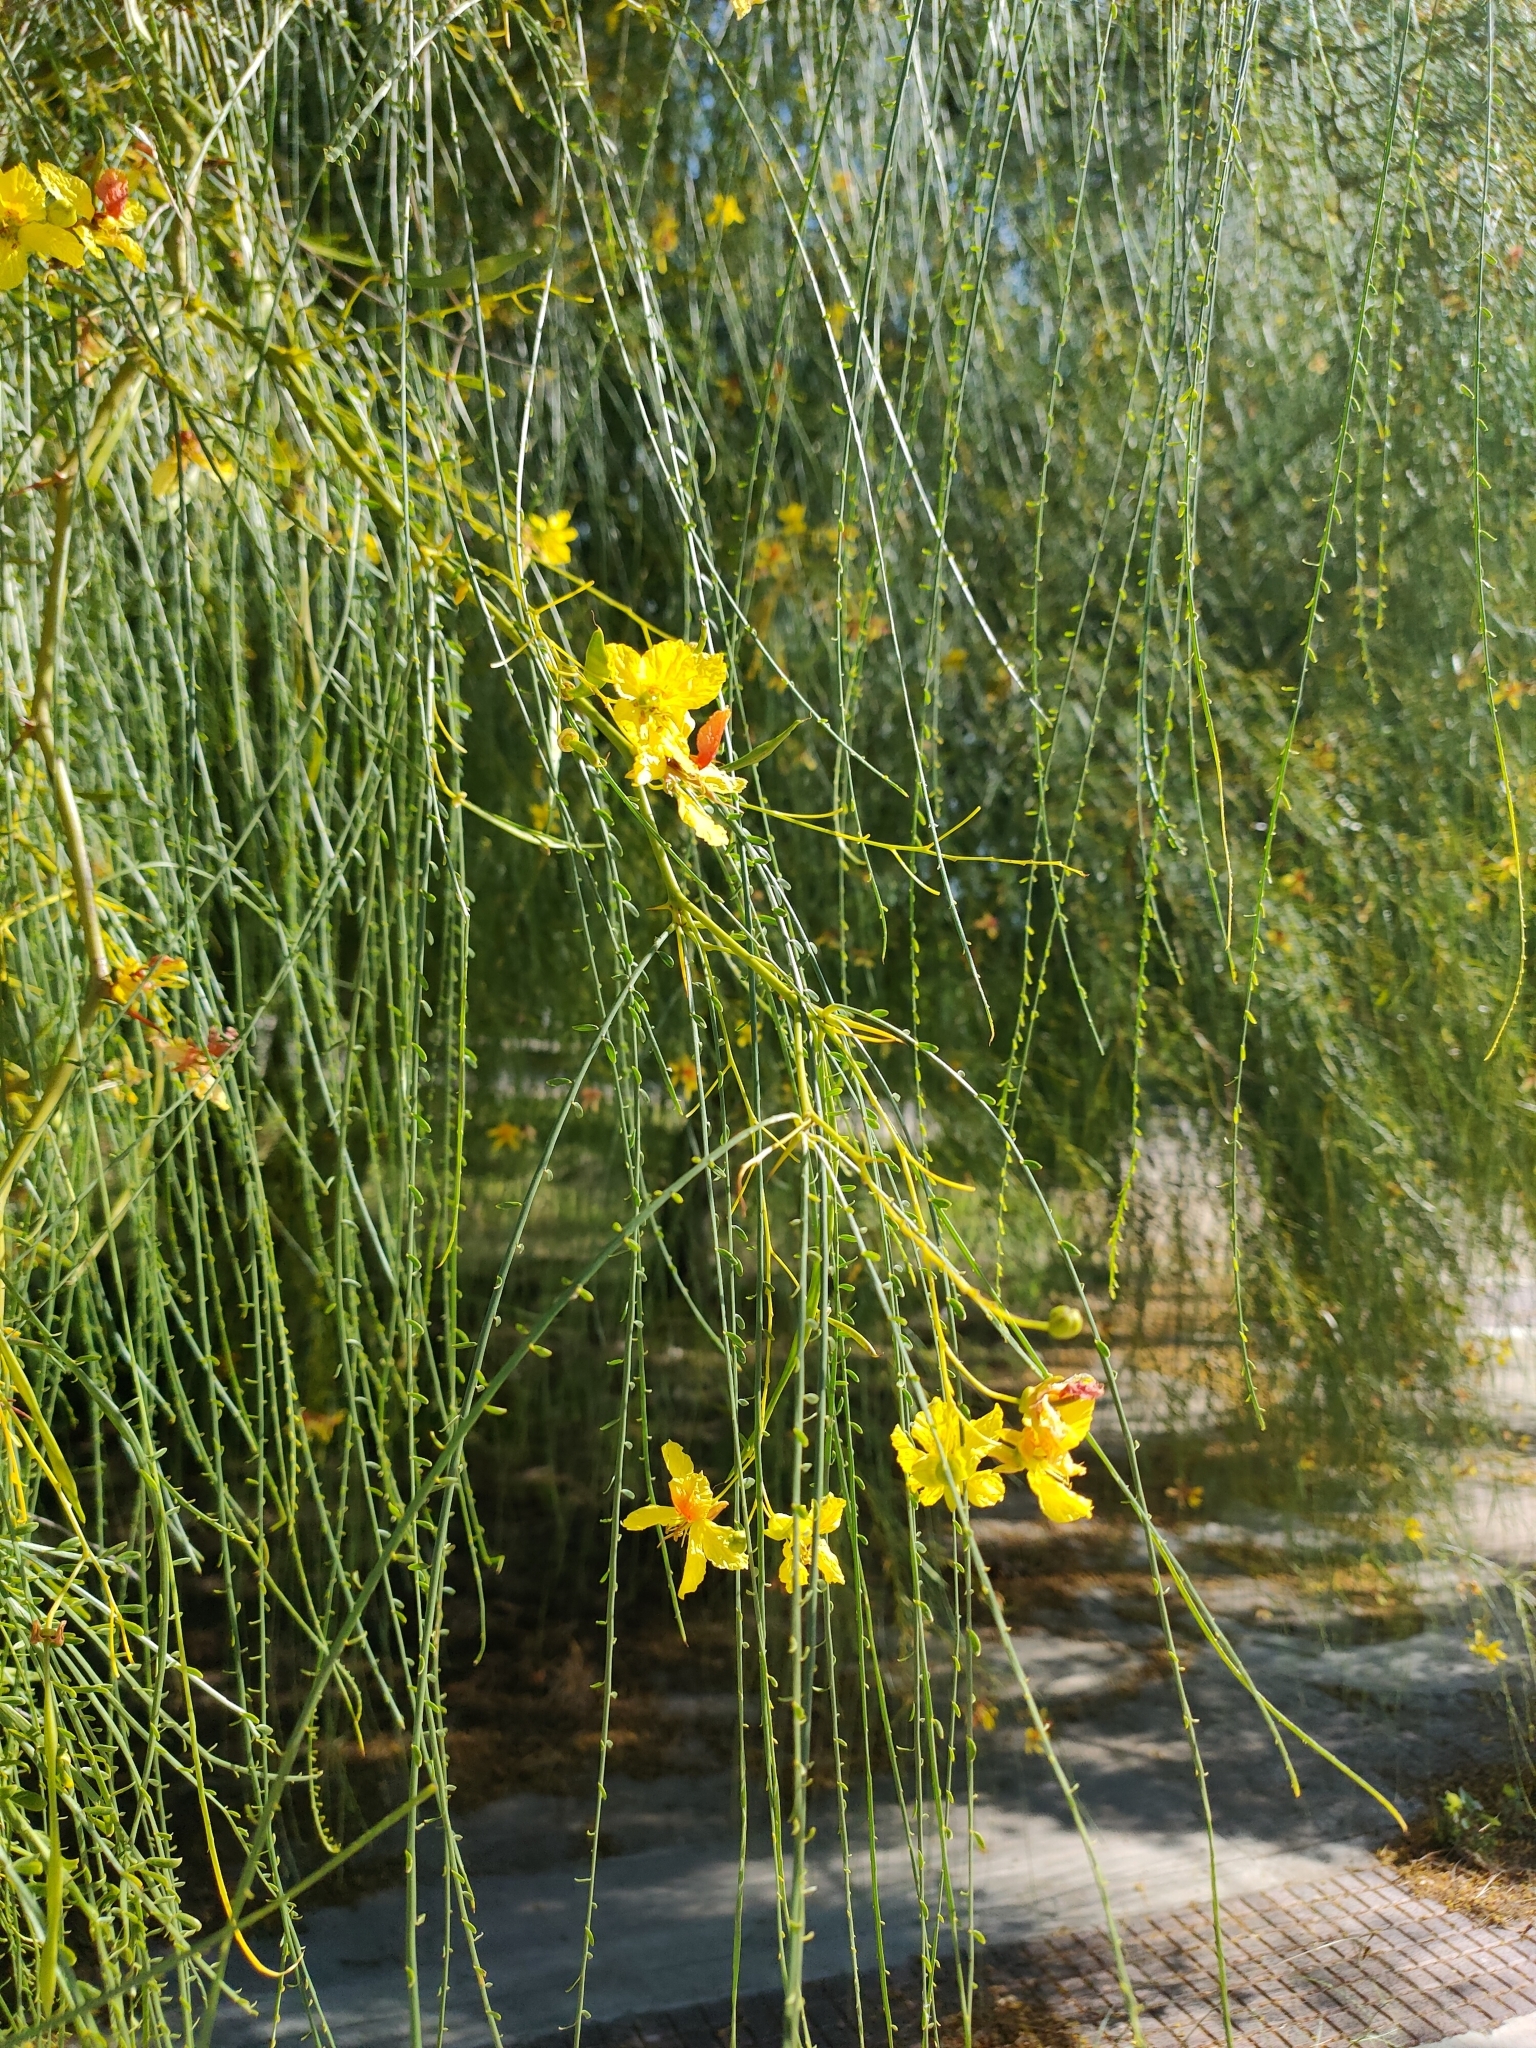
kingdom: Plantae
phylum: Tracheophyta
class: Magnoliopsida
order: Fabales
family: Fabaceae
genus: Parkinsonia
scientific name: Parkinsonia aculeata
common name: Jerusalem thorn
